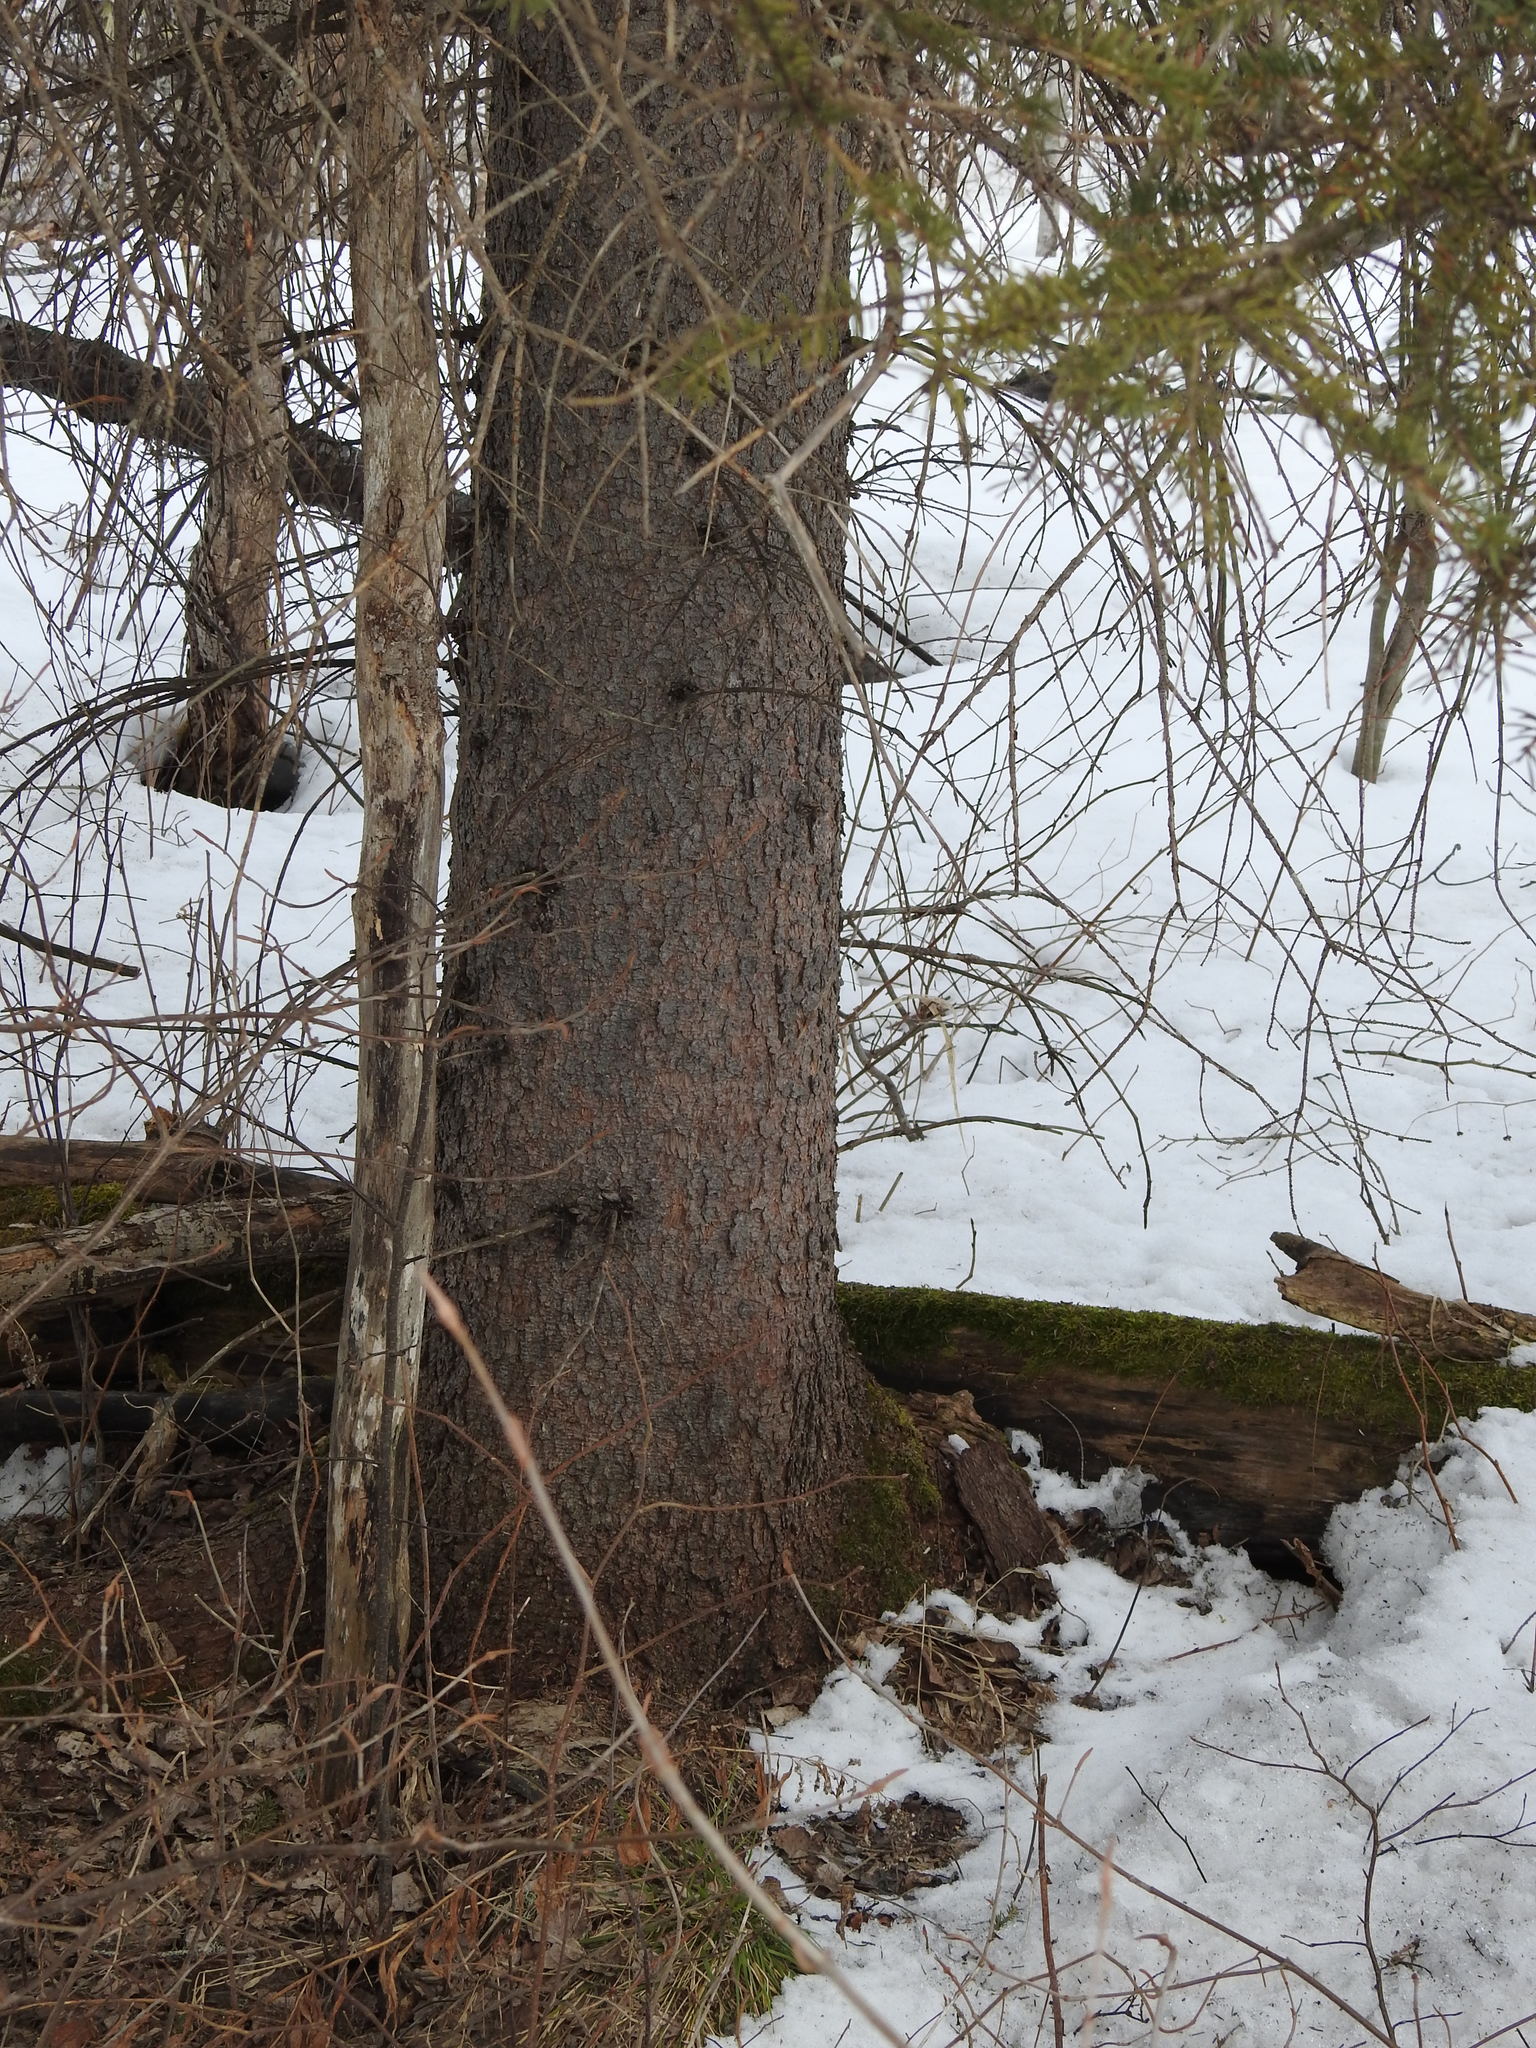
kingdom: Plantae
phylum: Tracheophyta
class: Pinopsida
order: Pinales
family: Pinaceae
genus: Picea
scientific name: Picea glauca
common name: White spruce
